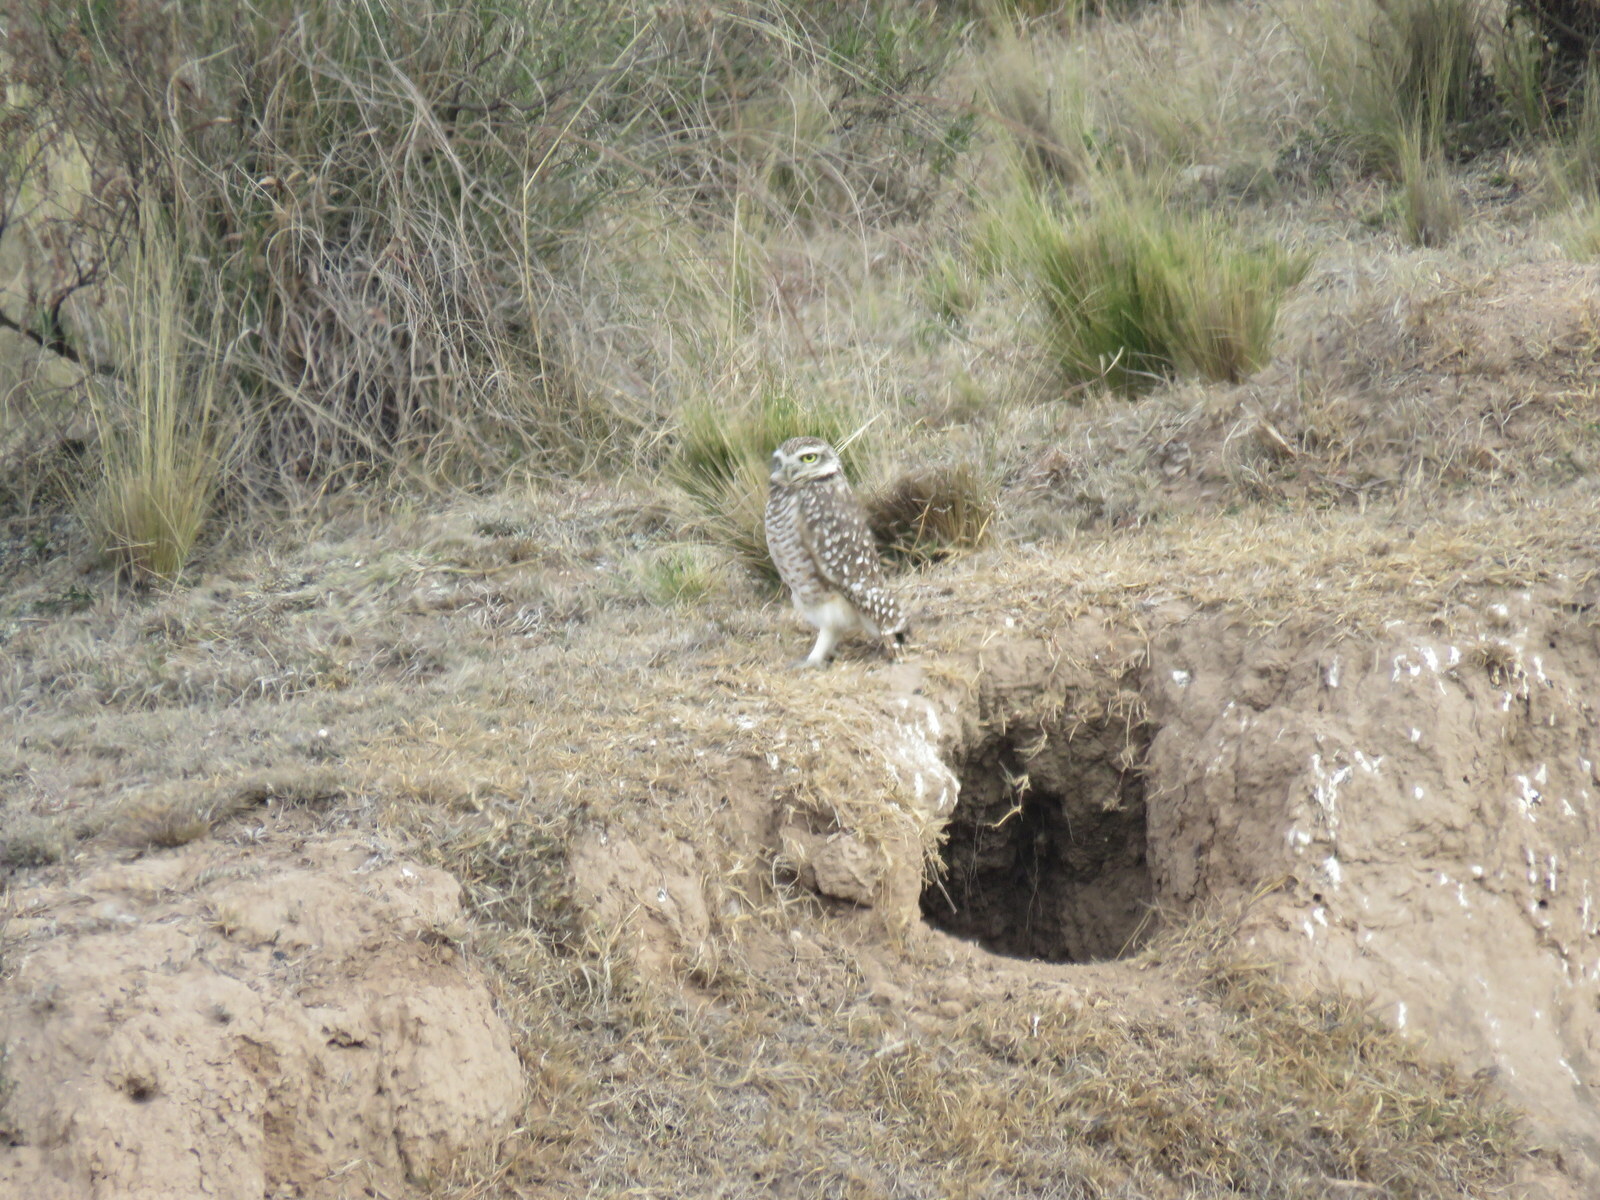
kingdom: Animalia
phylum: Chordata
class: Aves
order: Strigiformes
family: Strigidae
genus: Athene
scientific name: Athene cunicularia
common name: Burrowing owl
